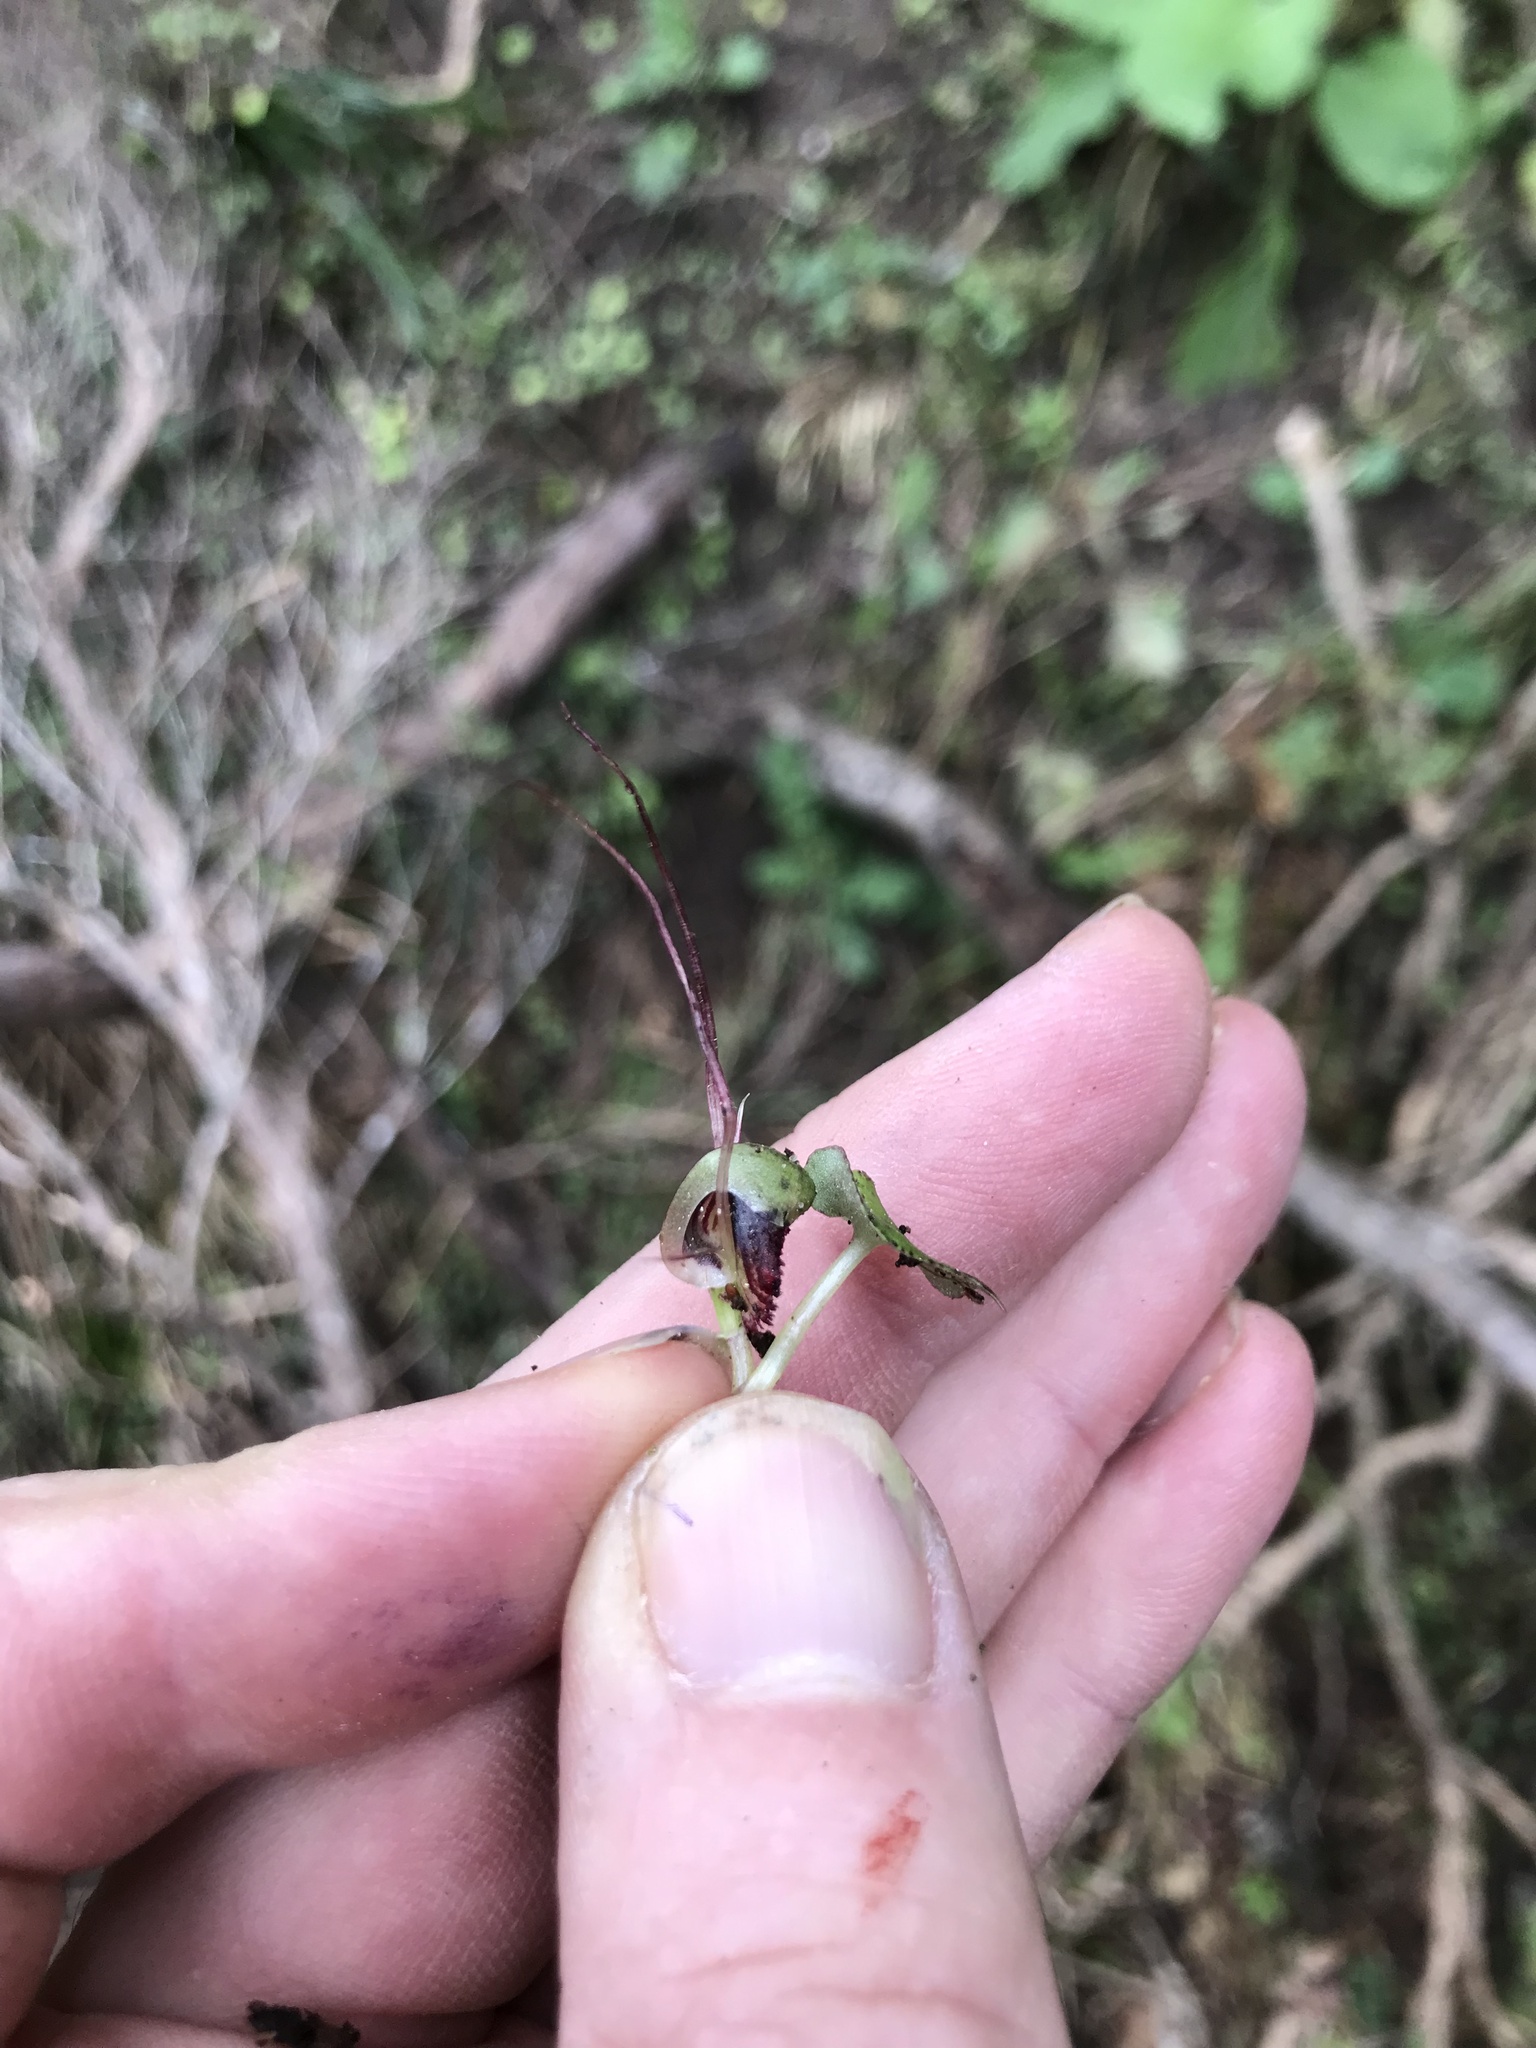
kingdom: Plantae
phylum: Tracheophyta
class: Liliopsida
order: Asparagales
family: Orchidaceae
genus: Corybas
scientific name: Corybas vitreus
